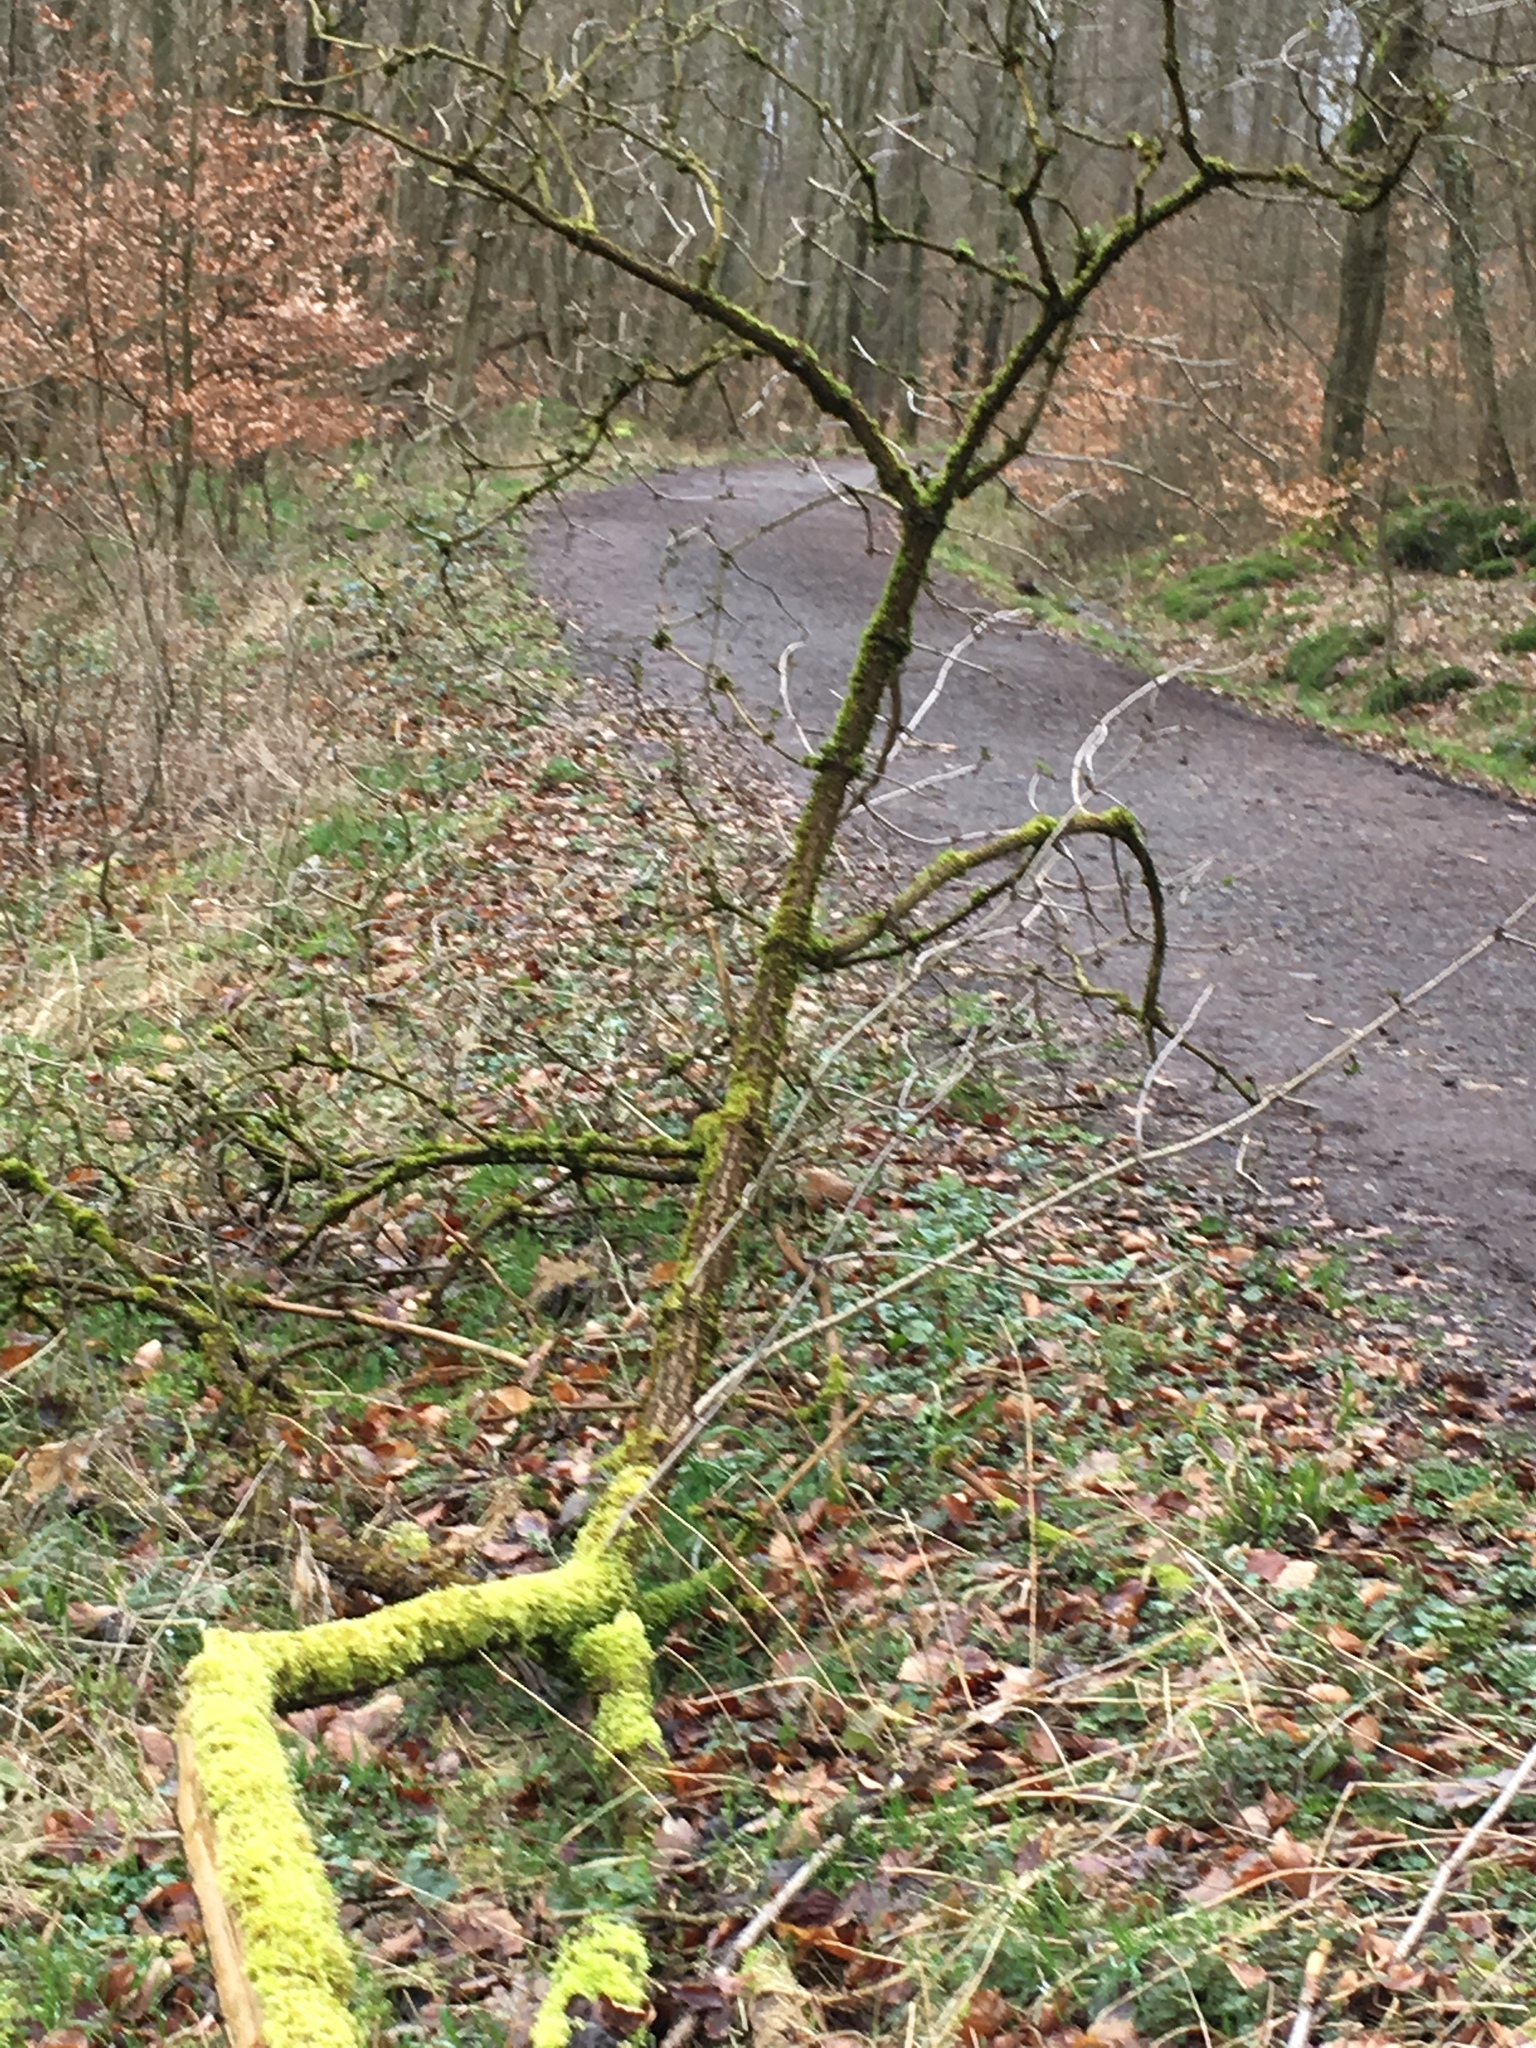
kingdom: Plantae
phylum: Tracheophyta
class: Magnoliopsida
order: Dipsacales
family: Viburnaceae
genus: Sambucus
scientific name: Sambucus nigra
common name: Elder
